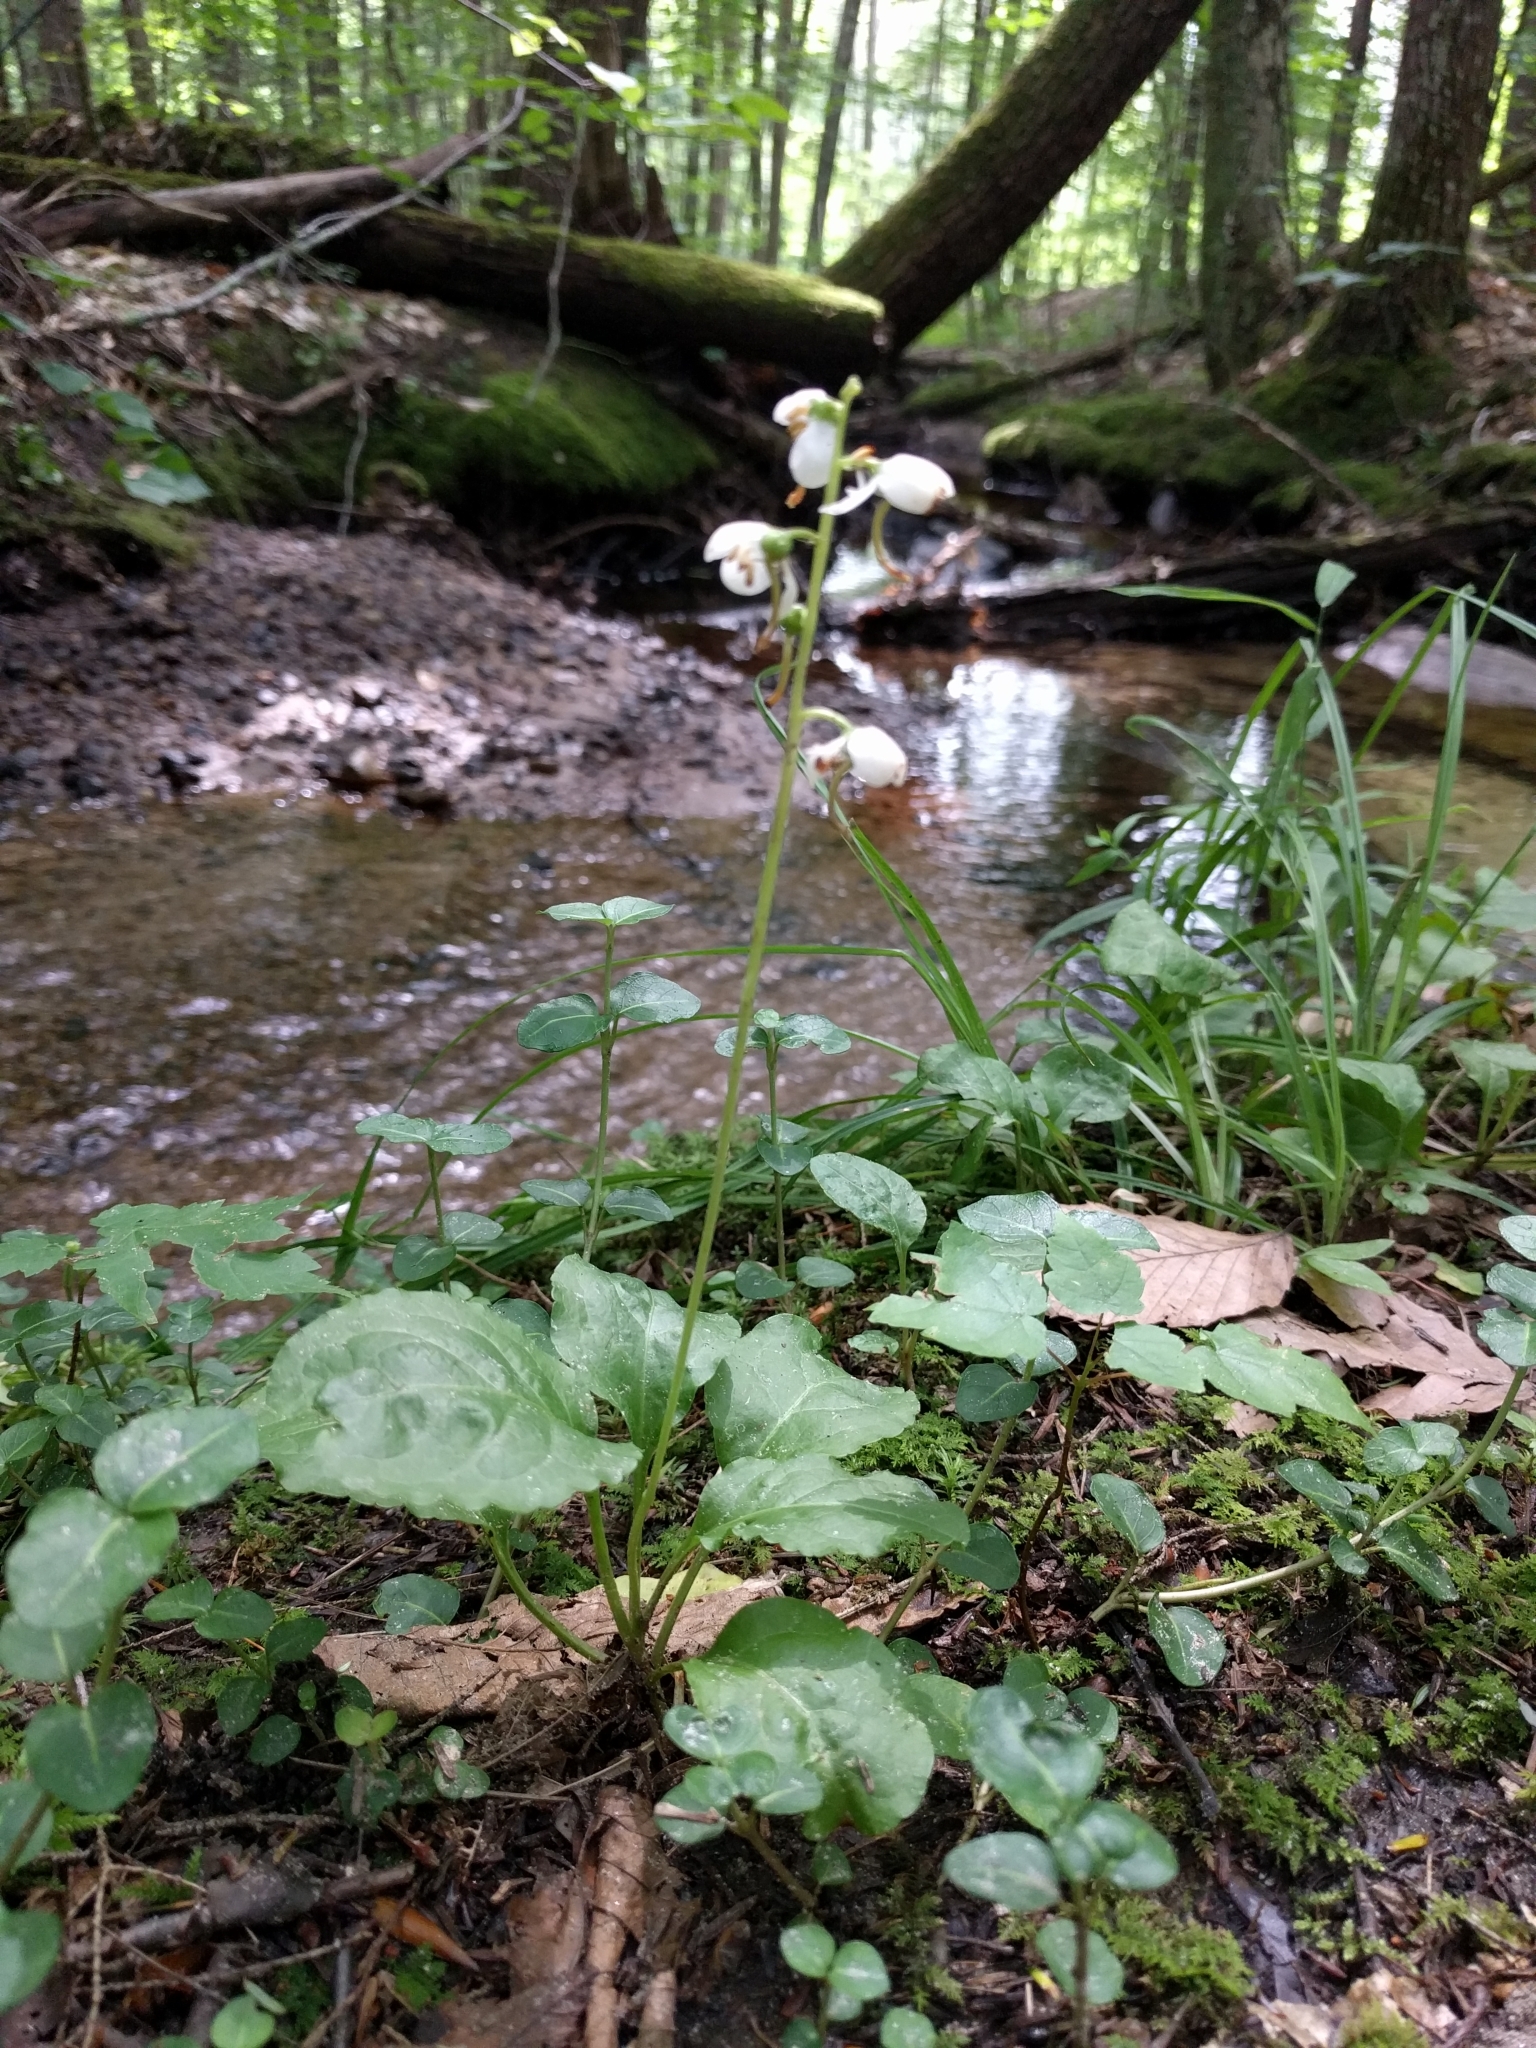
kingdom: Plantae
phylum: Tracheophyta
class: Magnoliopsida
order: Ericales
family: Ericaceae
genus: Pyrola
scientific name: Pyrola elliptica
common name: Shinleaf
